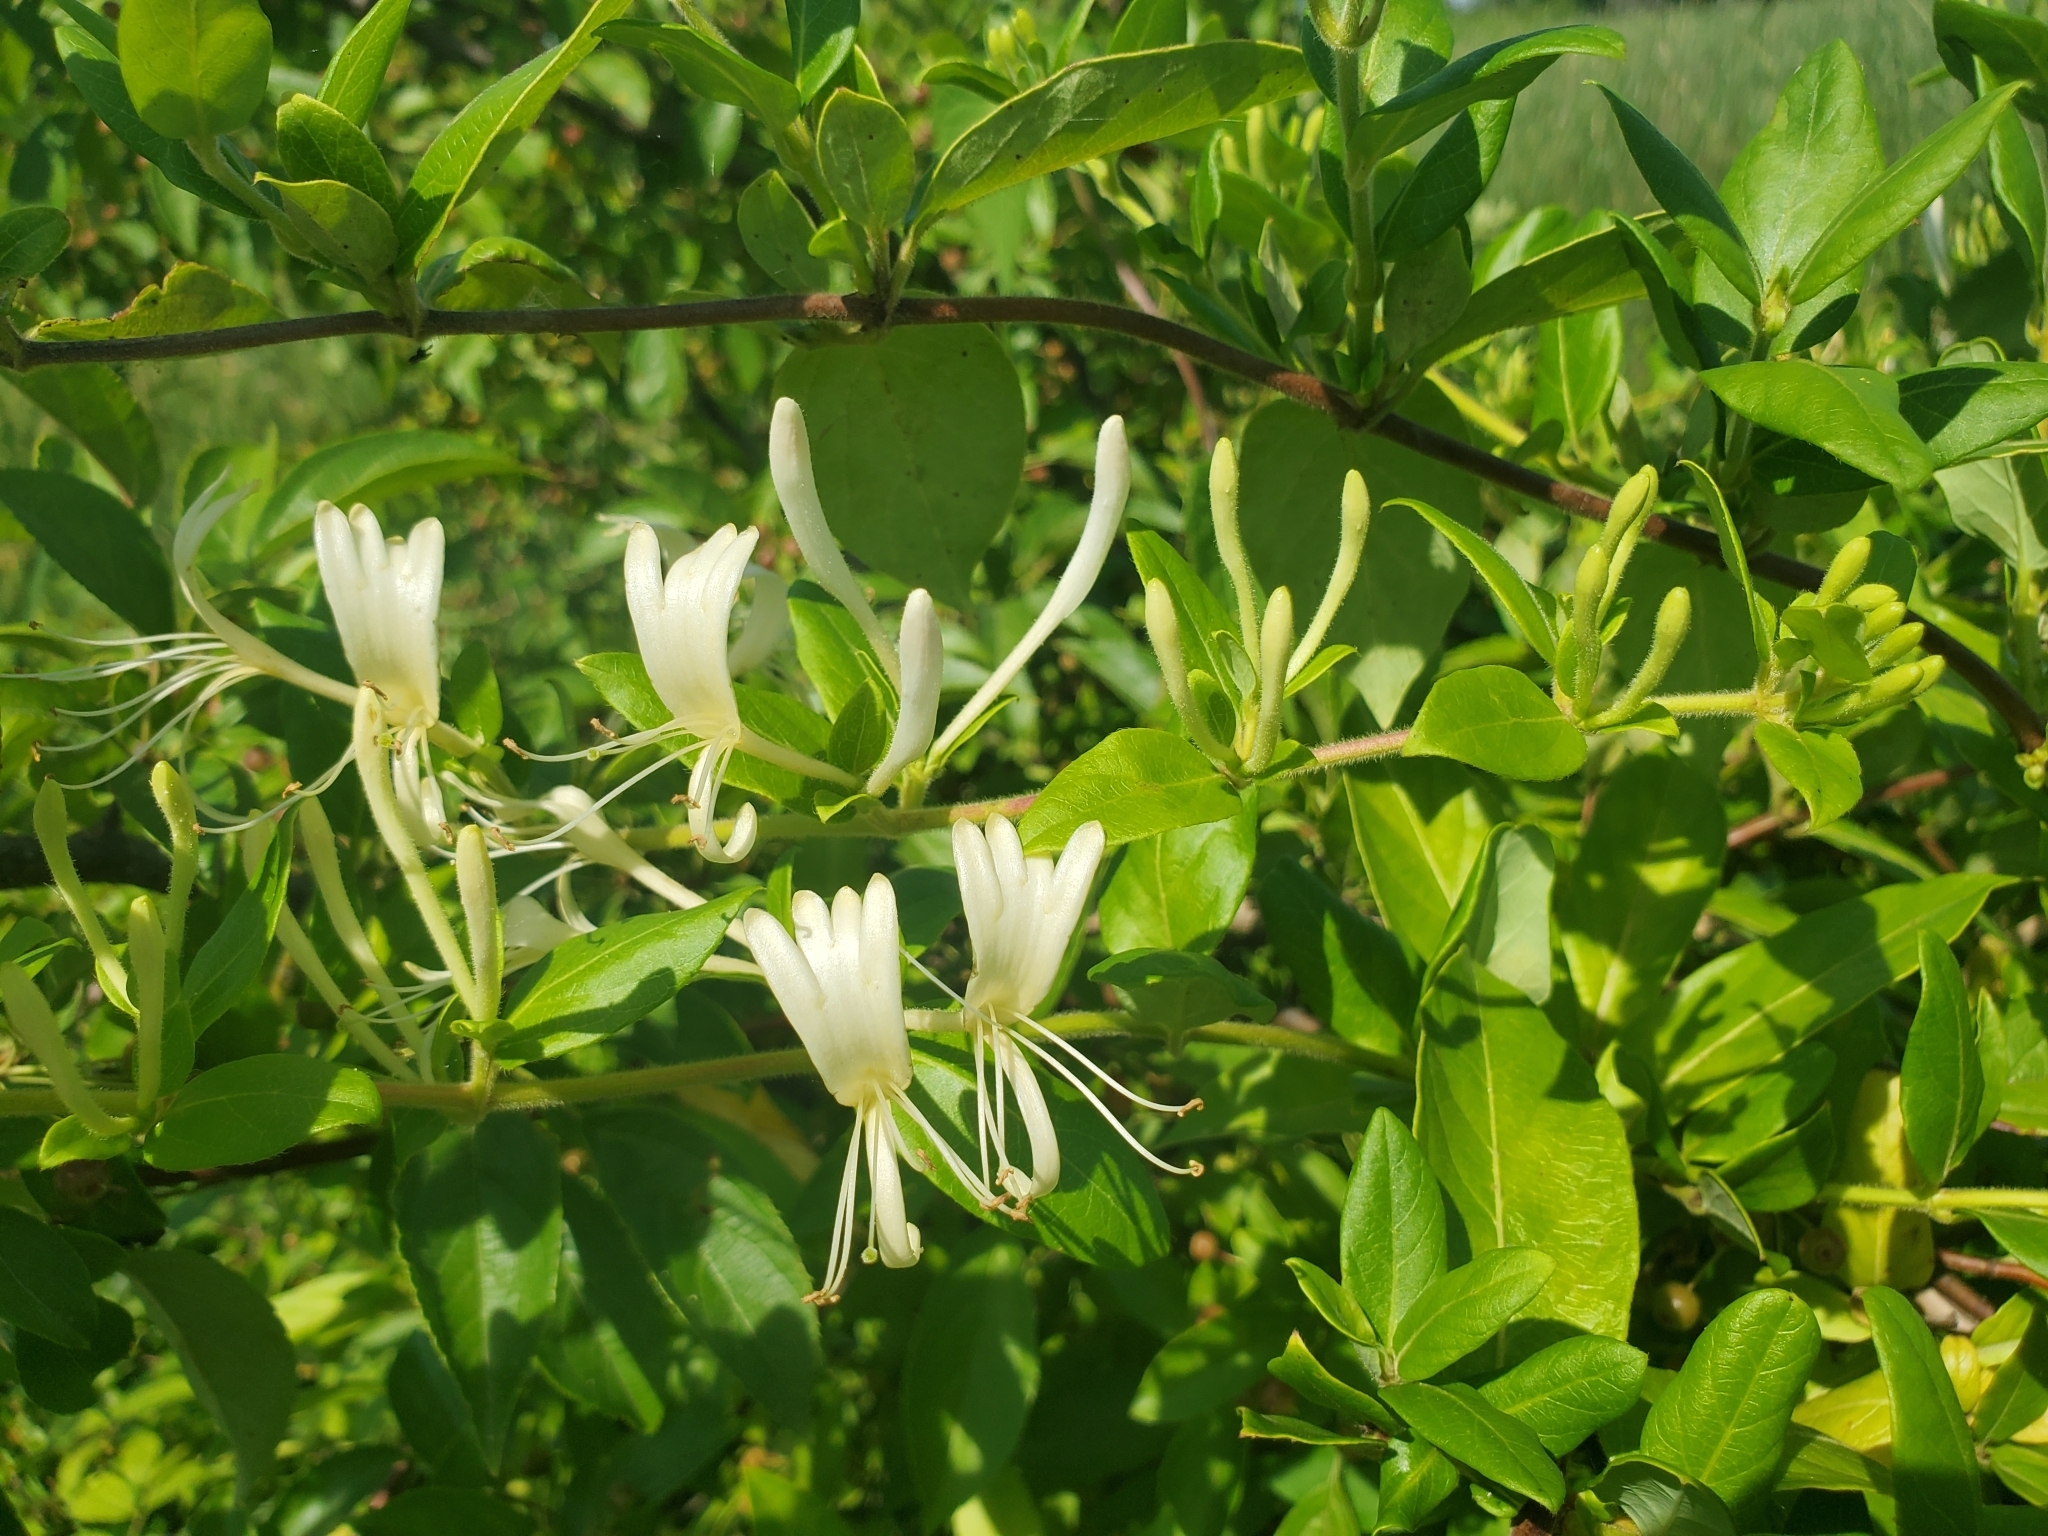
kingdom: Plantae
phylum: Tracheophyta
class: Magnoliopsida
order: Dipsacales
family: Caprifoliaceae
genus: Lonicera
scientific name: Lonicera japonica
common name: Japanese honeysuckle
